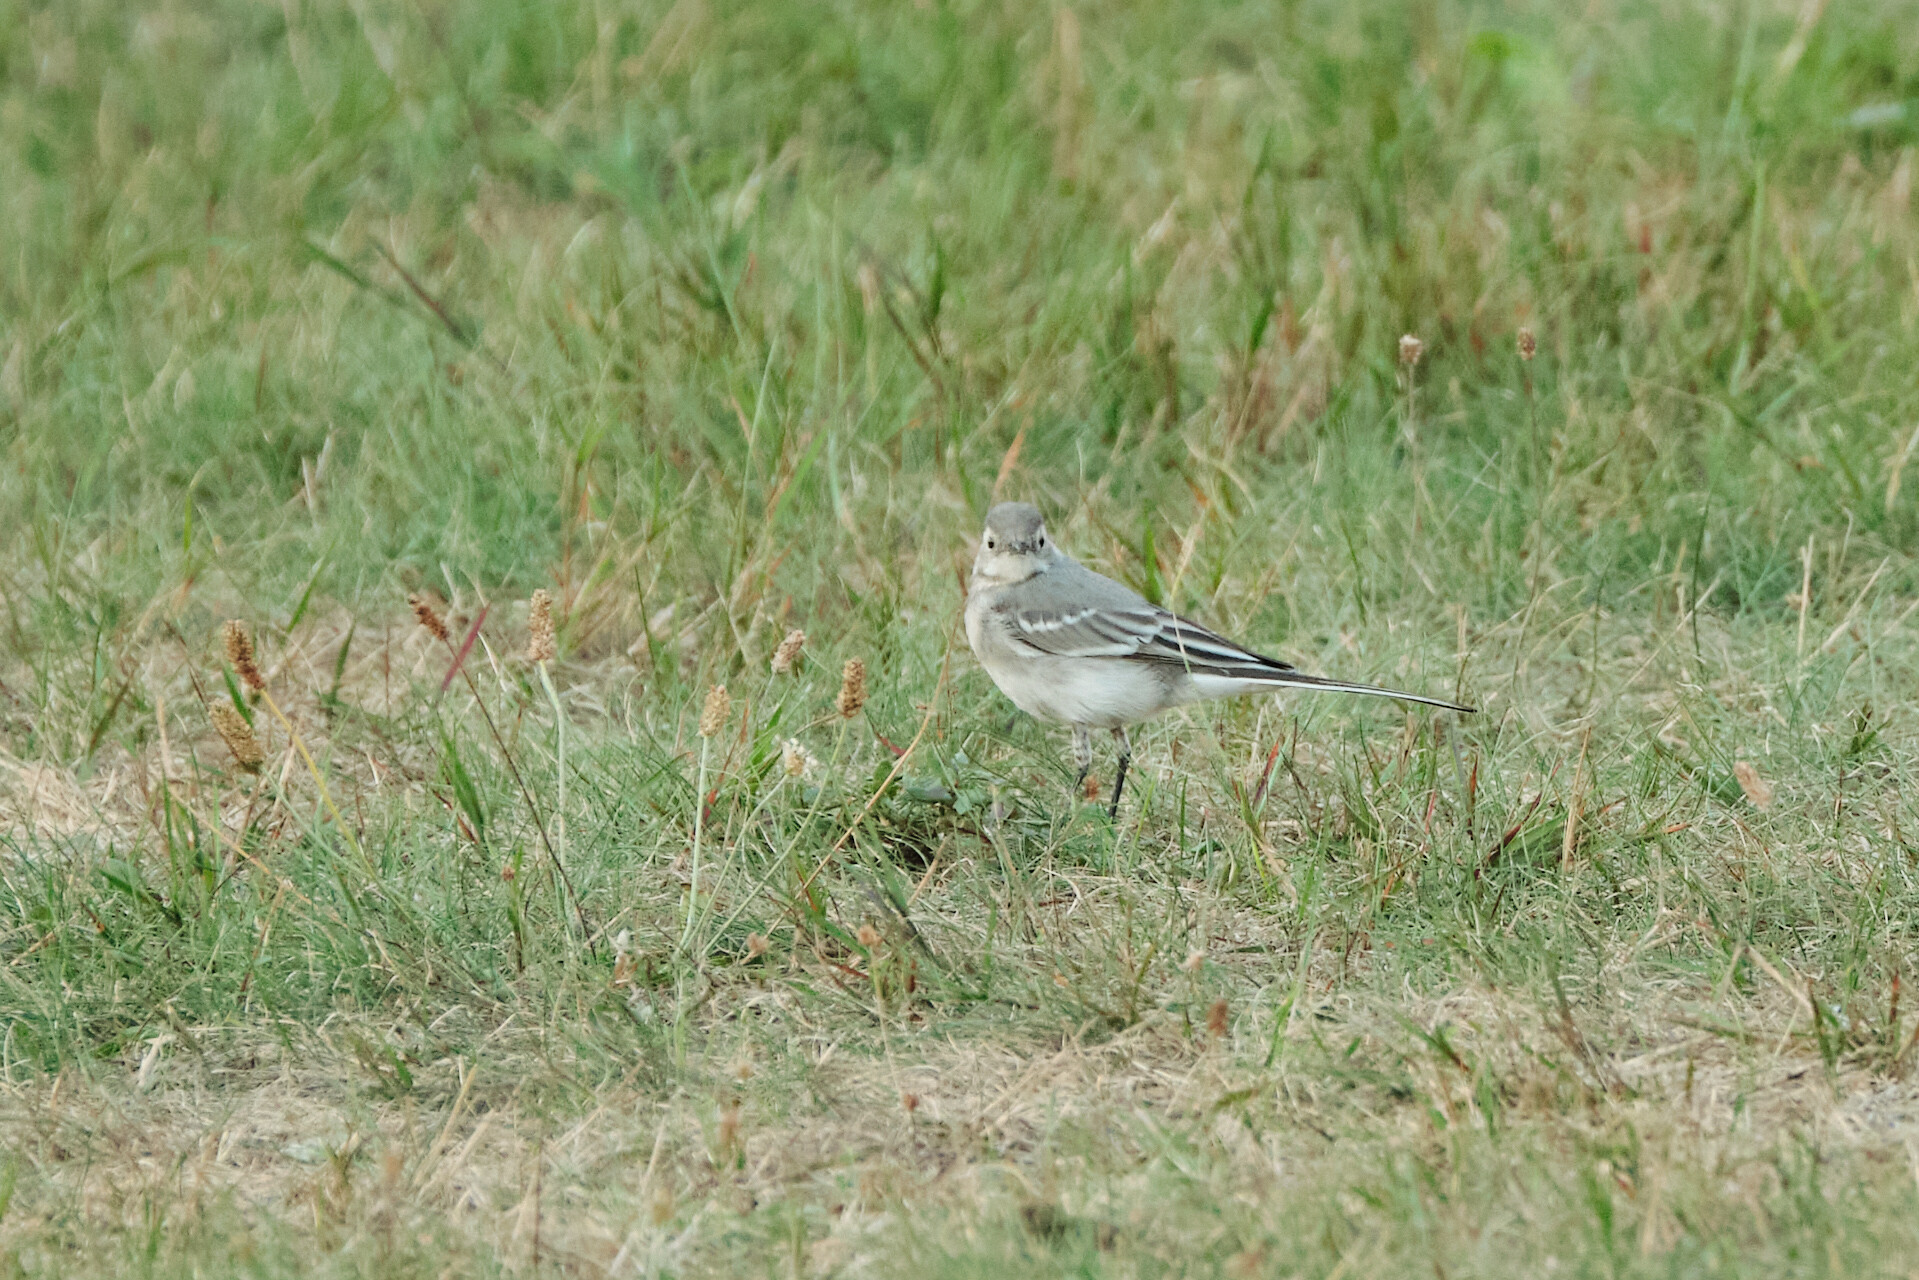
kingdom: Animalia
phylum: Chordata
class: Aves
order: Passeriformes
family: Motacillidae
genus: Motacilla
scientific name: Motacilla alba
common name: White wagtail
